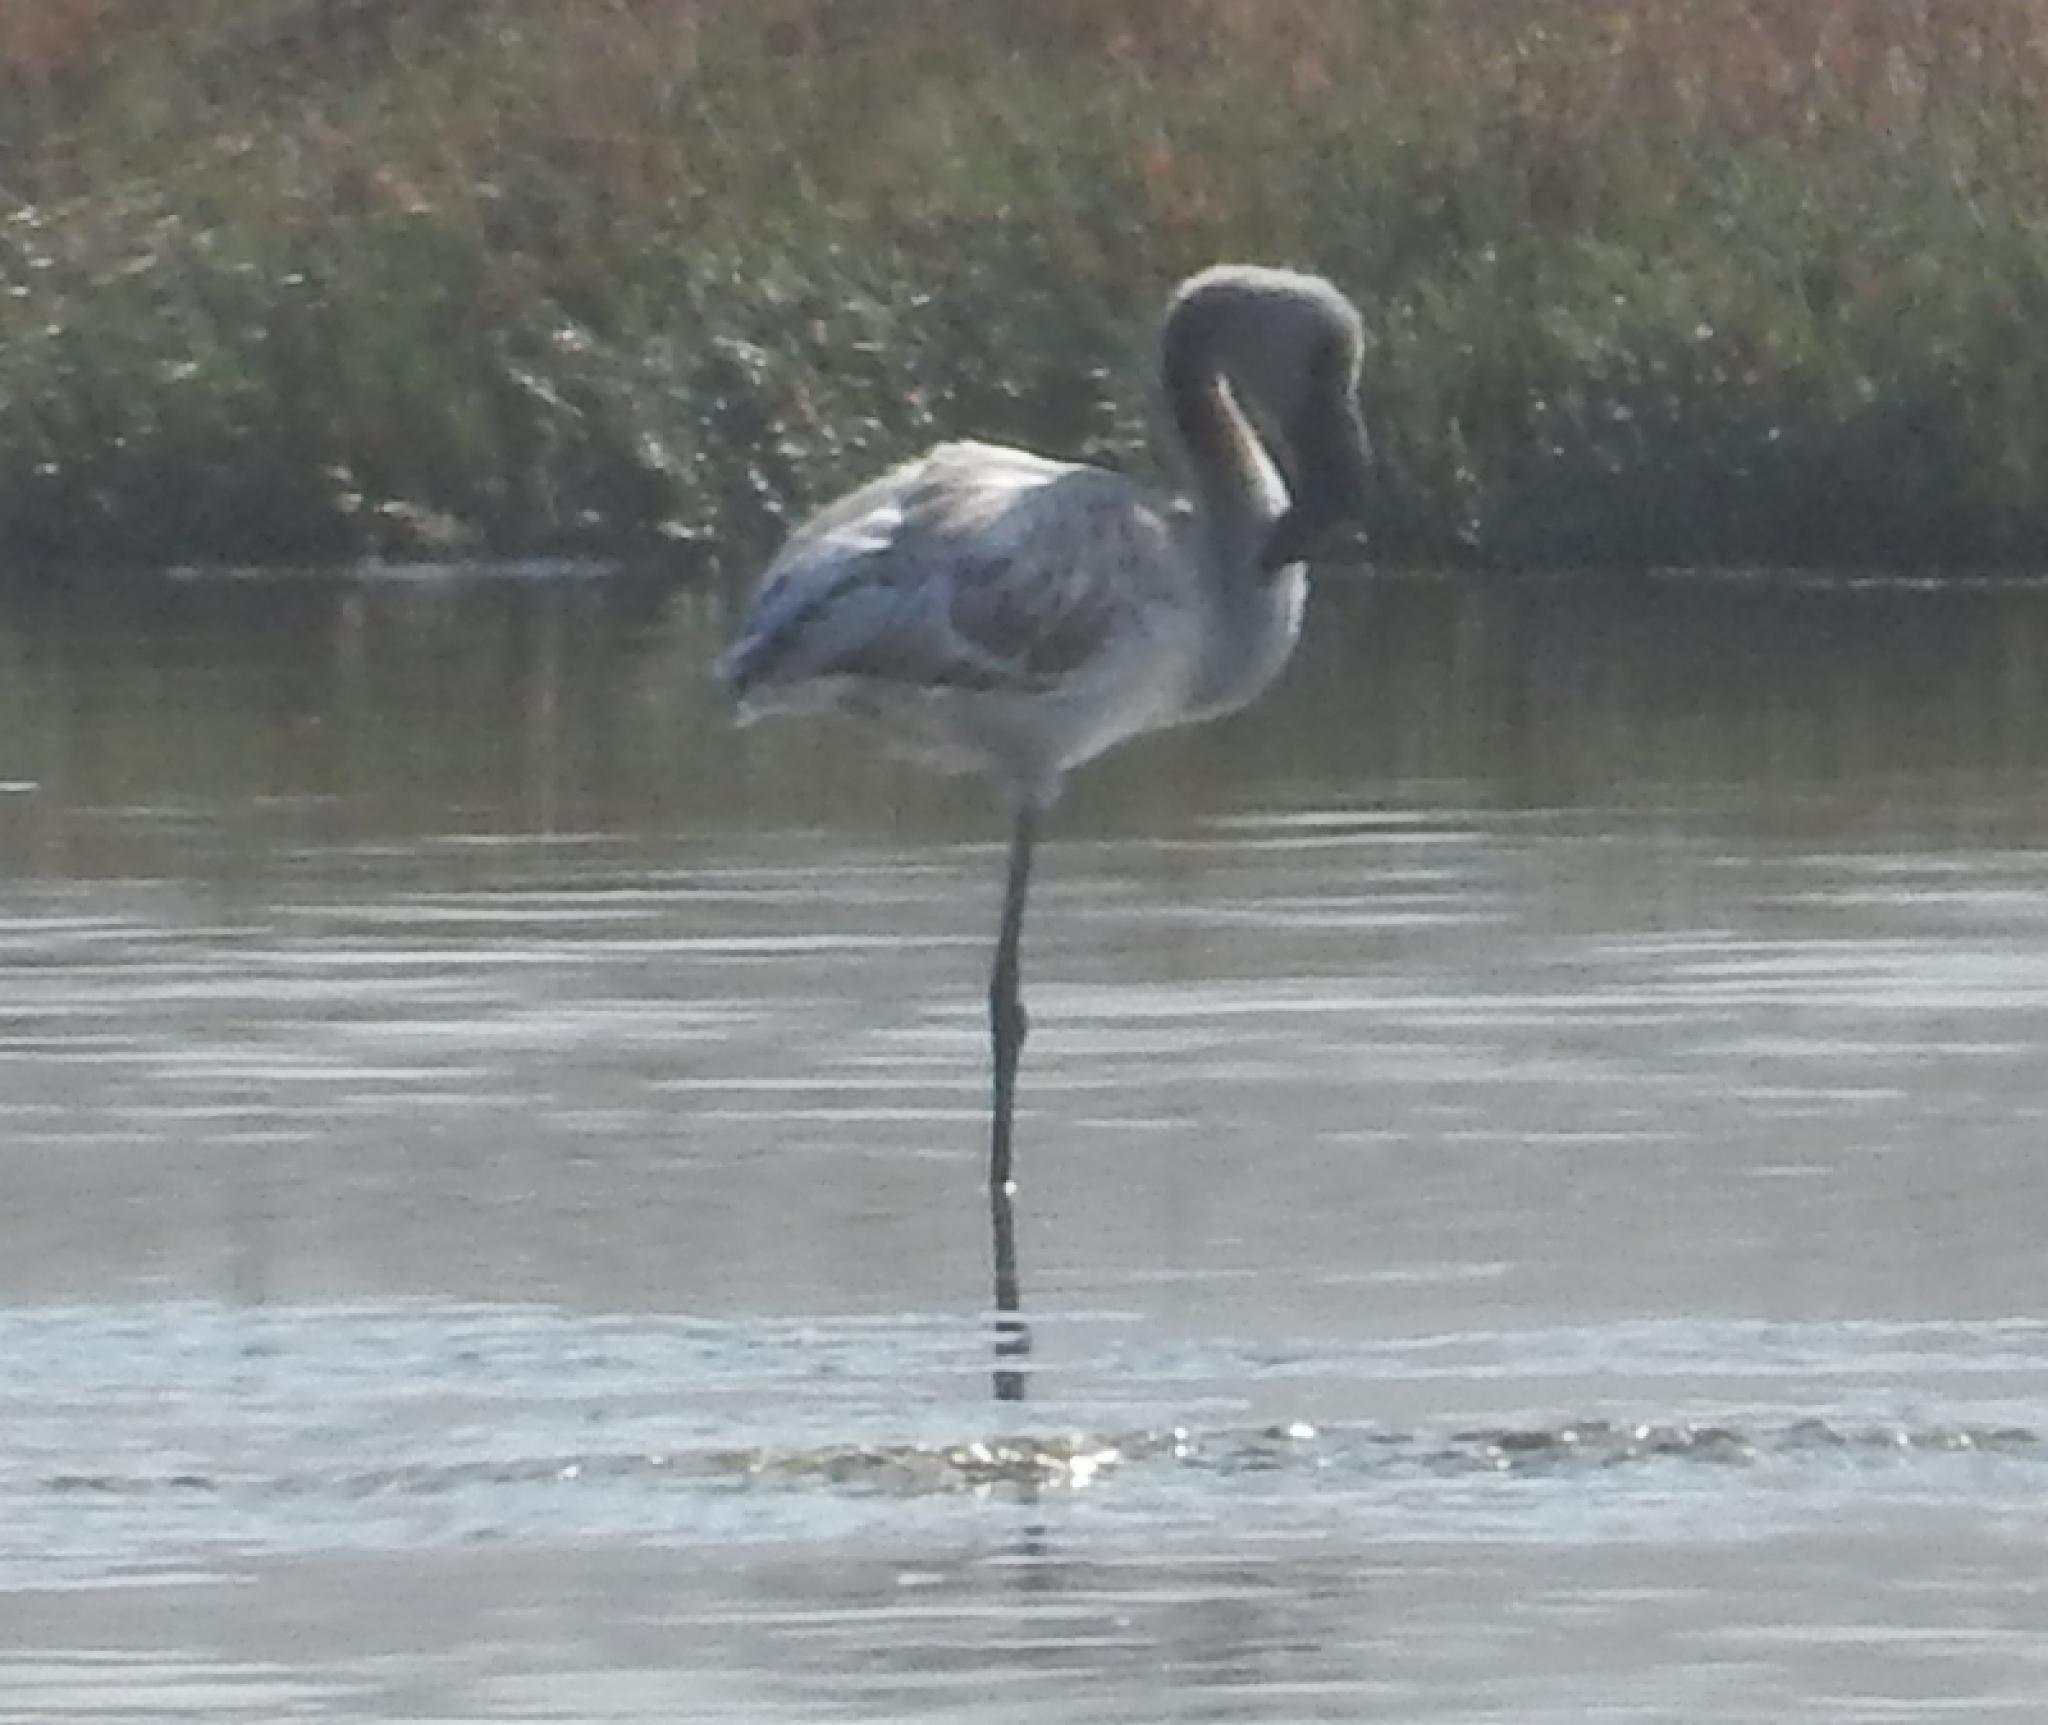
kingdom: Animalia
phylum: Chordata
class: Aves
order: Phoenicopteriformes
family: Phoenicopteridae
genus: Phoeniconaias
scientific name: Phoeniconaias minor
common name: Lesser flamingo
